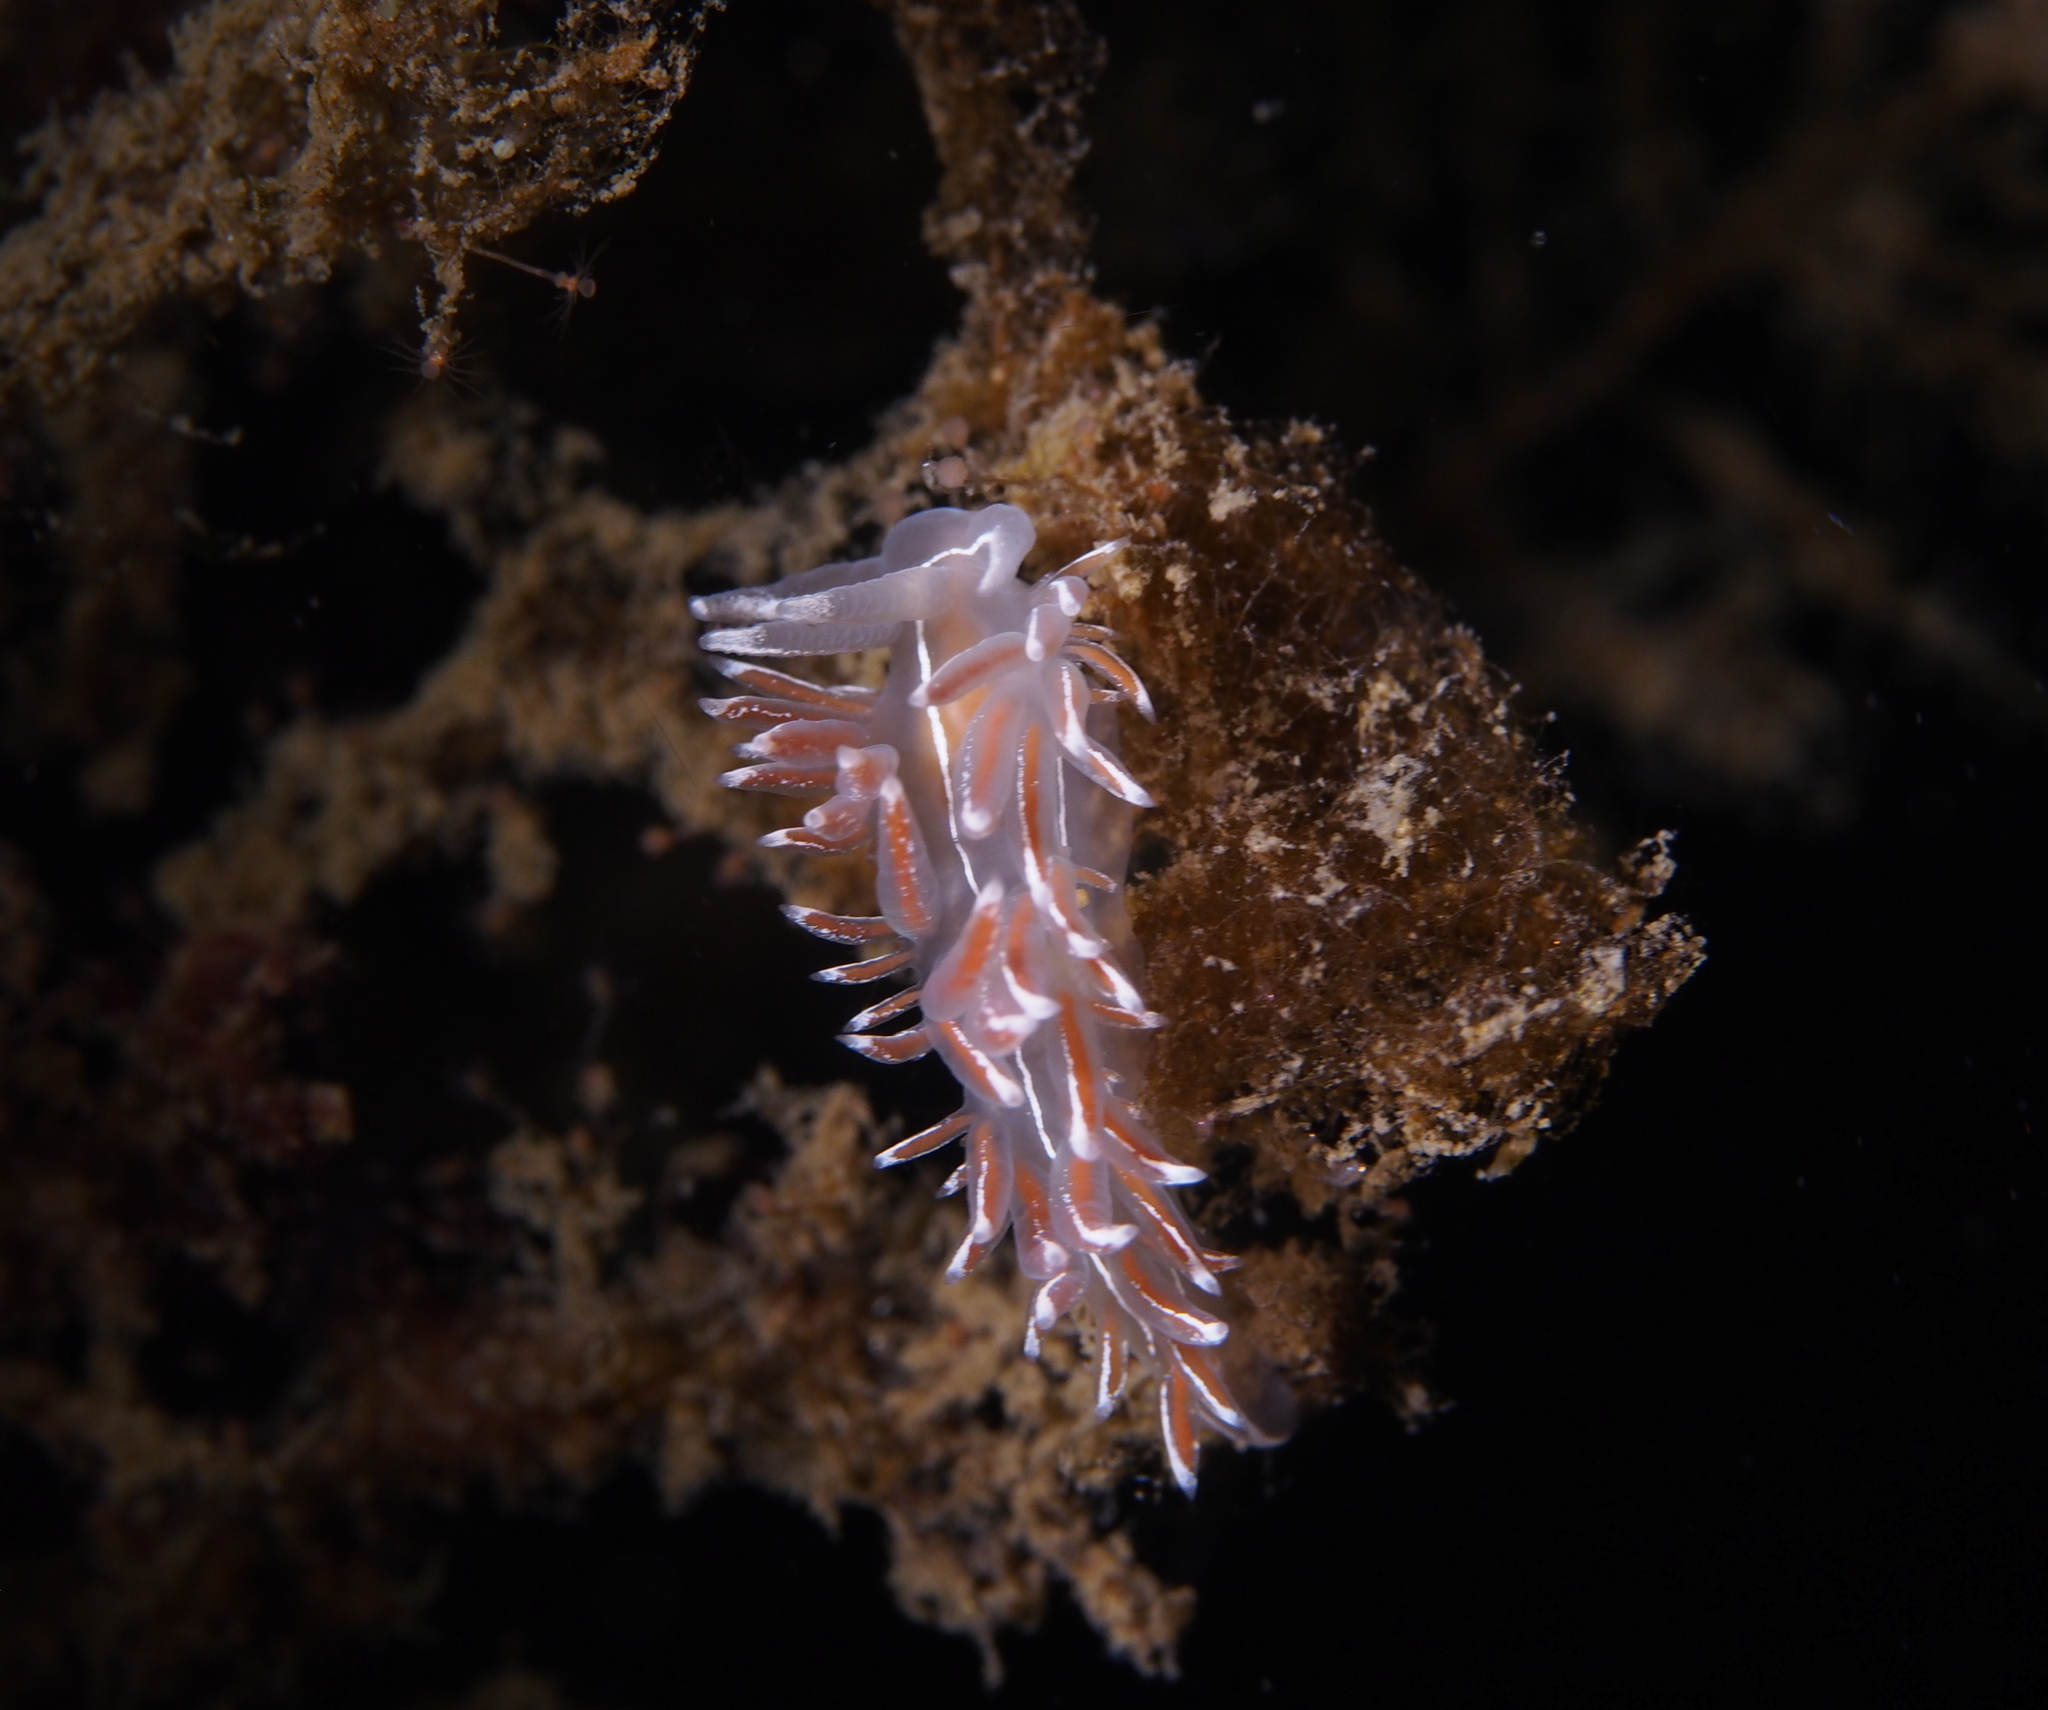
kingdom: Animalia
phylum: Mollusca
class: Gastropoda
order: Nudibranchia
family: Coryphellidae
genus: Coryphella
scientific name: Coryphella lineata
